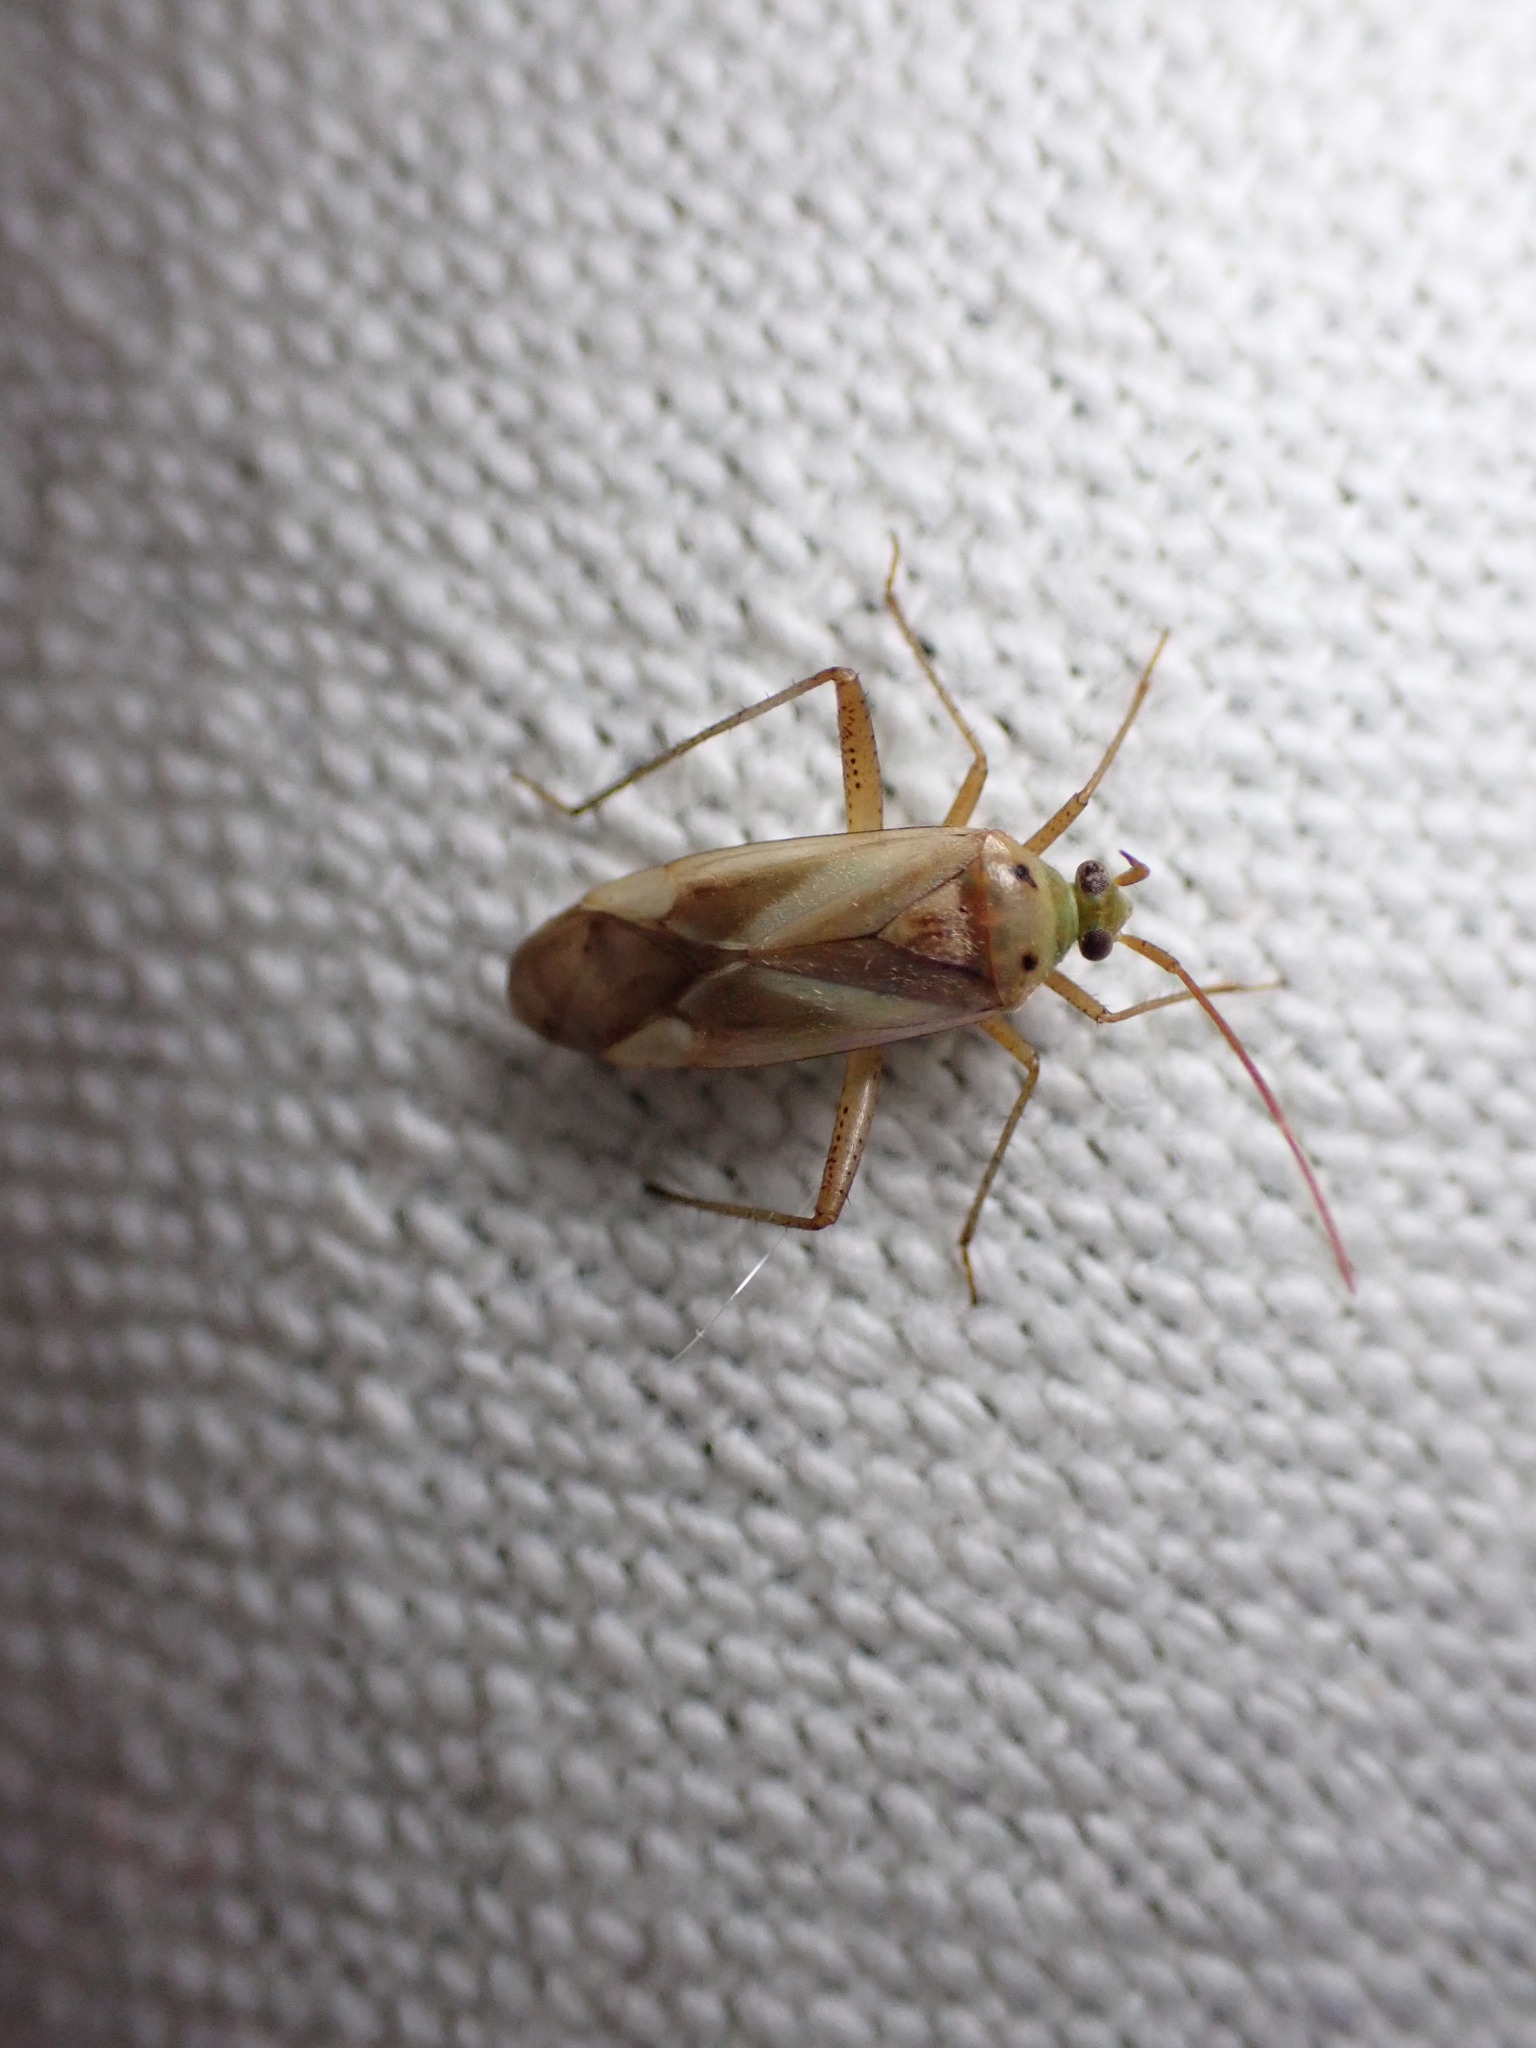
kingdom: Animalia
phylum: Arthropoda
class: Insecta
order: Hemiptera
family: Miridae
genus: Adelphocoris
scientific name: Adelphocoris lineolatus
